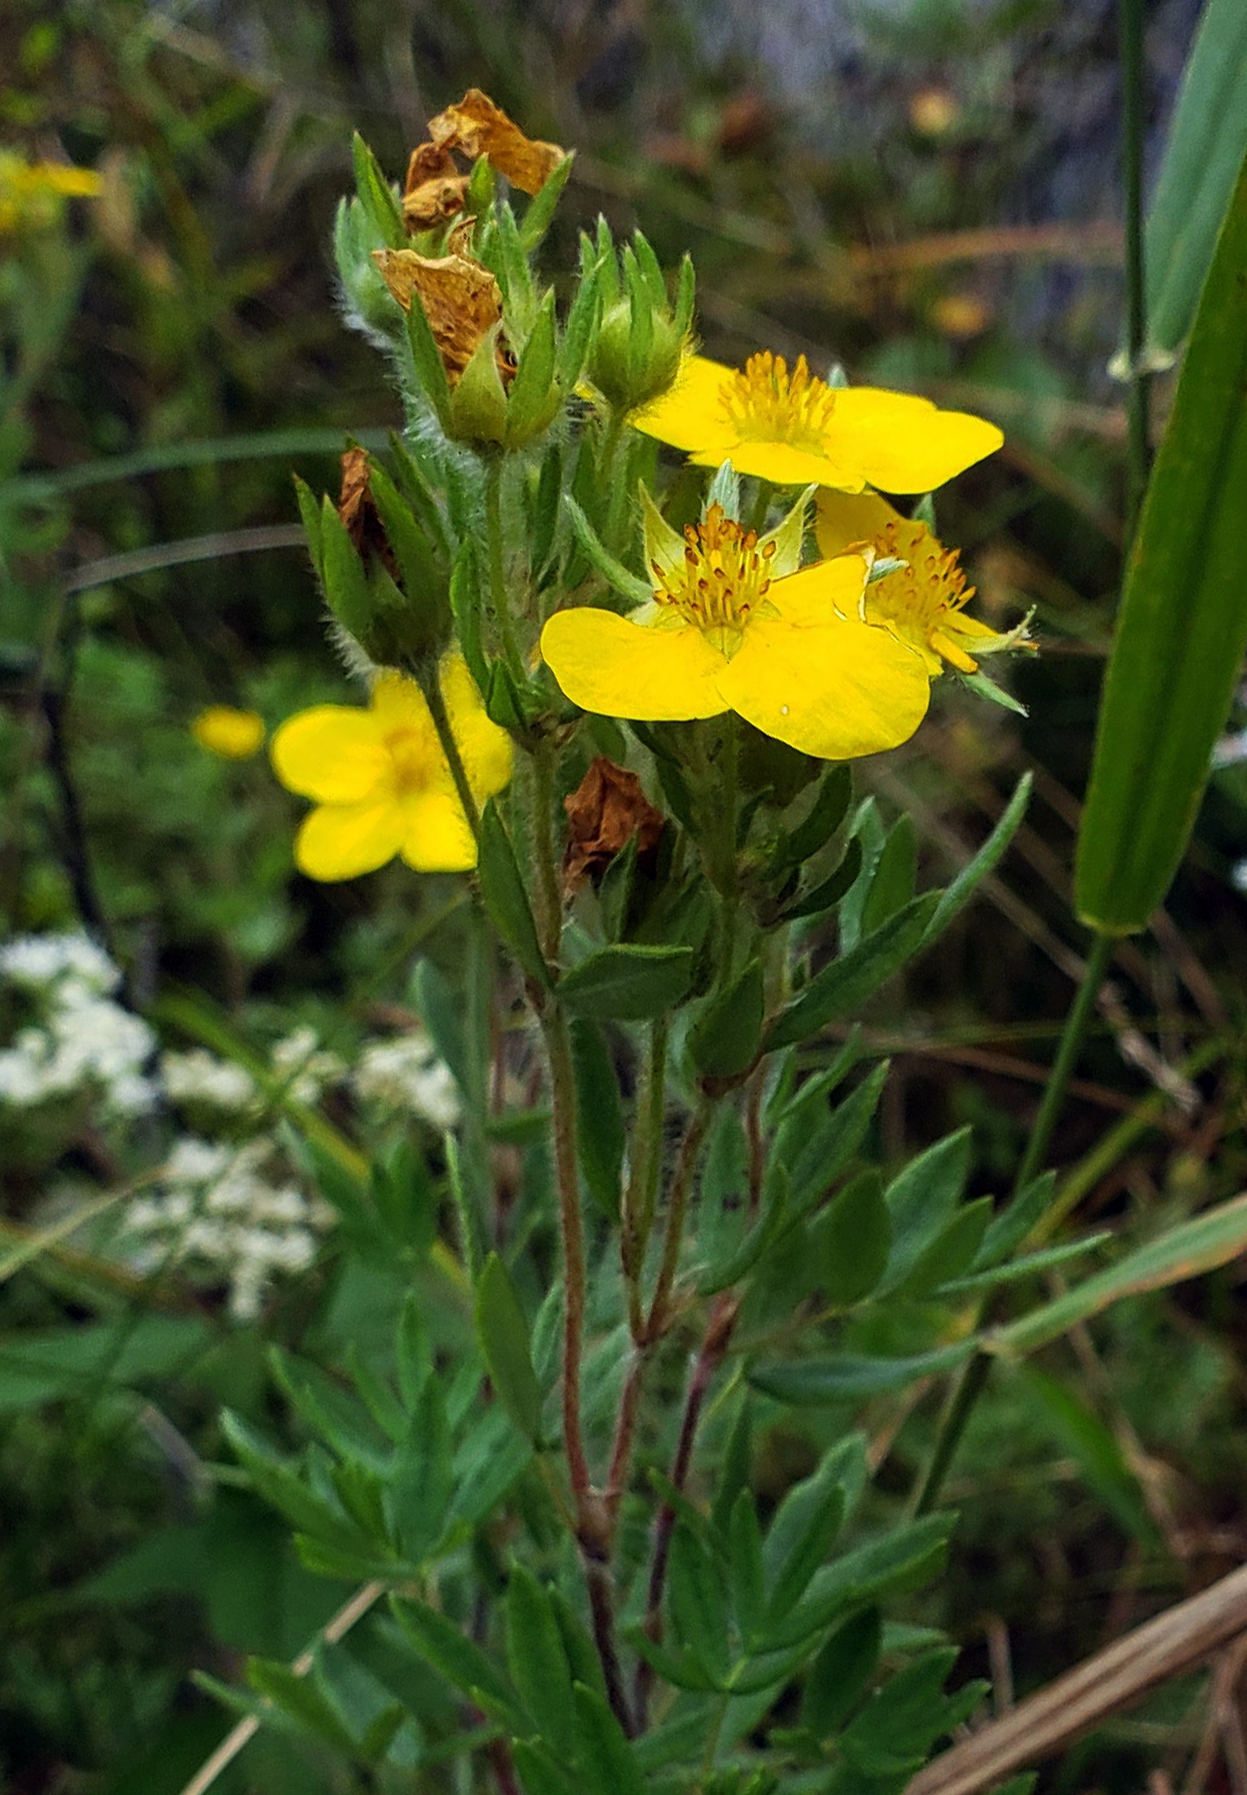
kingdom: Plantae
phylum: Tracheophyta
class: Magnoliopsida
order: Rosales
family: Rosaceae
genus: Dasiphora
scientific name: Dasiphora fruticosa
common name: Shrubby cinquefoil
